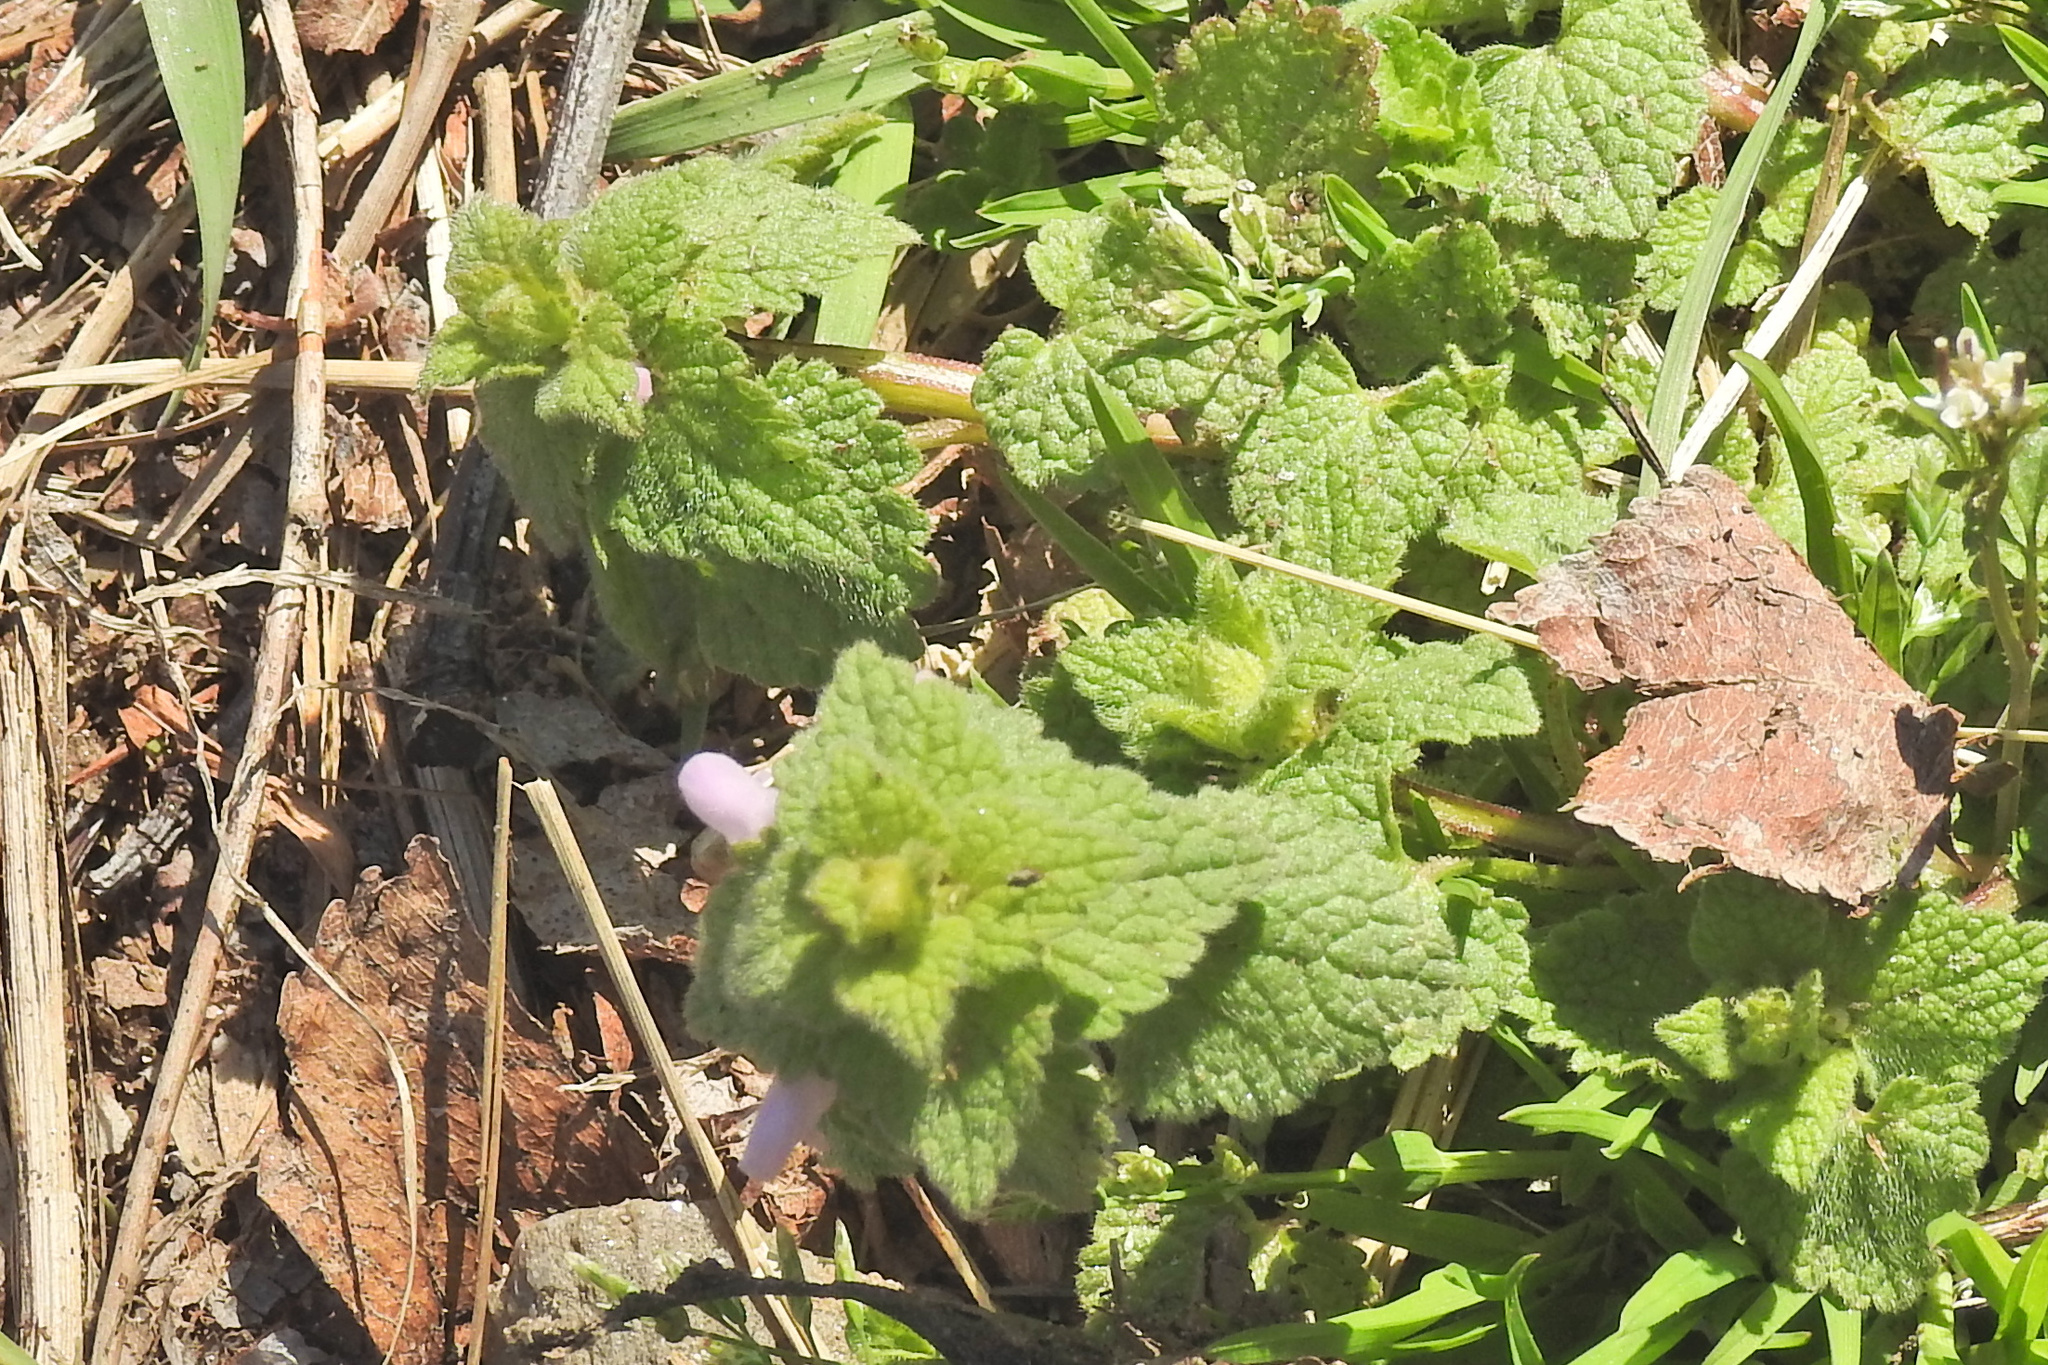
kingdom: Plantae
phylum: Tracheophyta
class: Magnoliopsida
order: Lamiales
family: Lamiaceae
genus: Lamium
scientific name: Lamium purpureum
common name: Red dead-nettle
